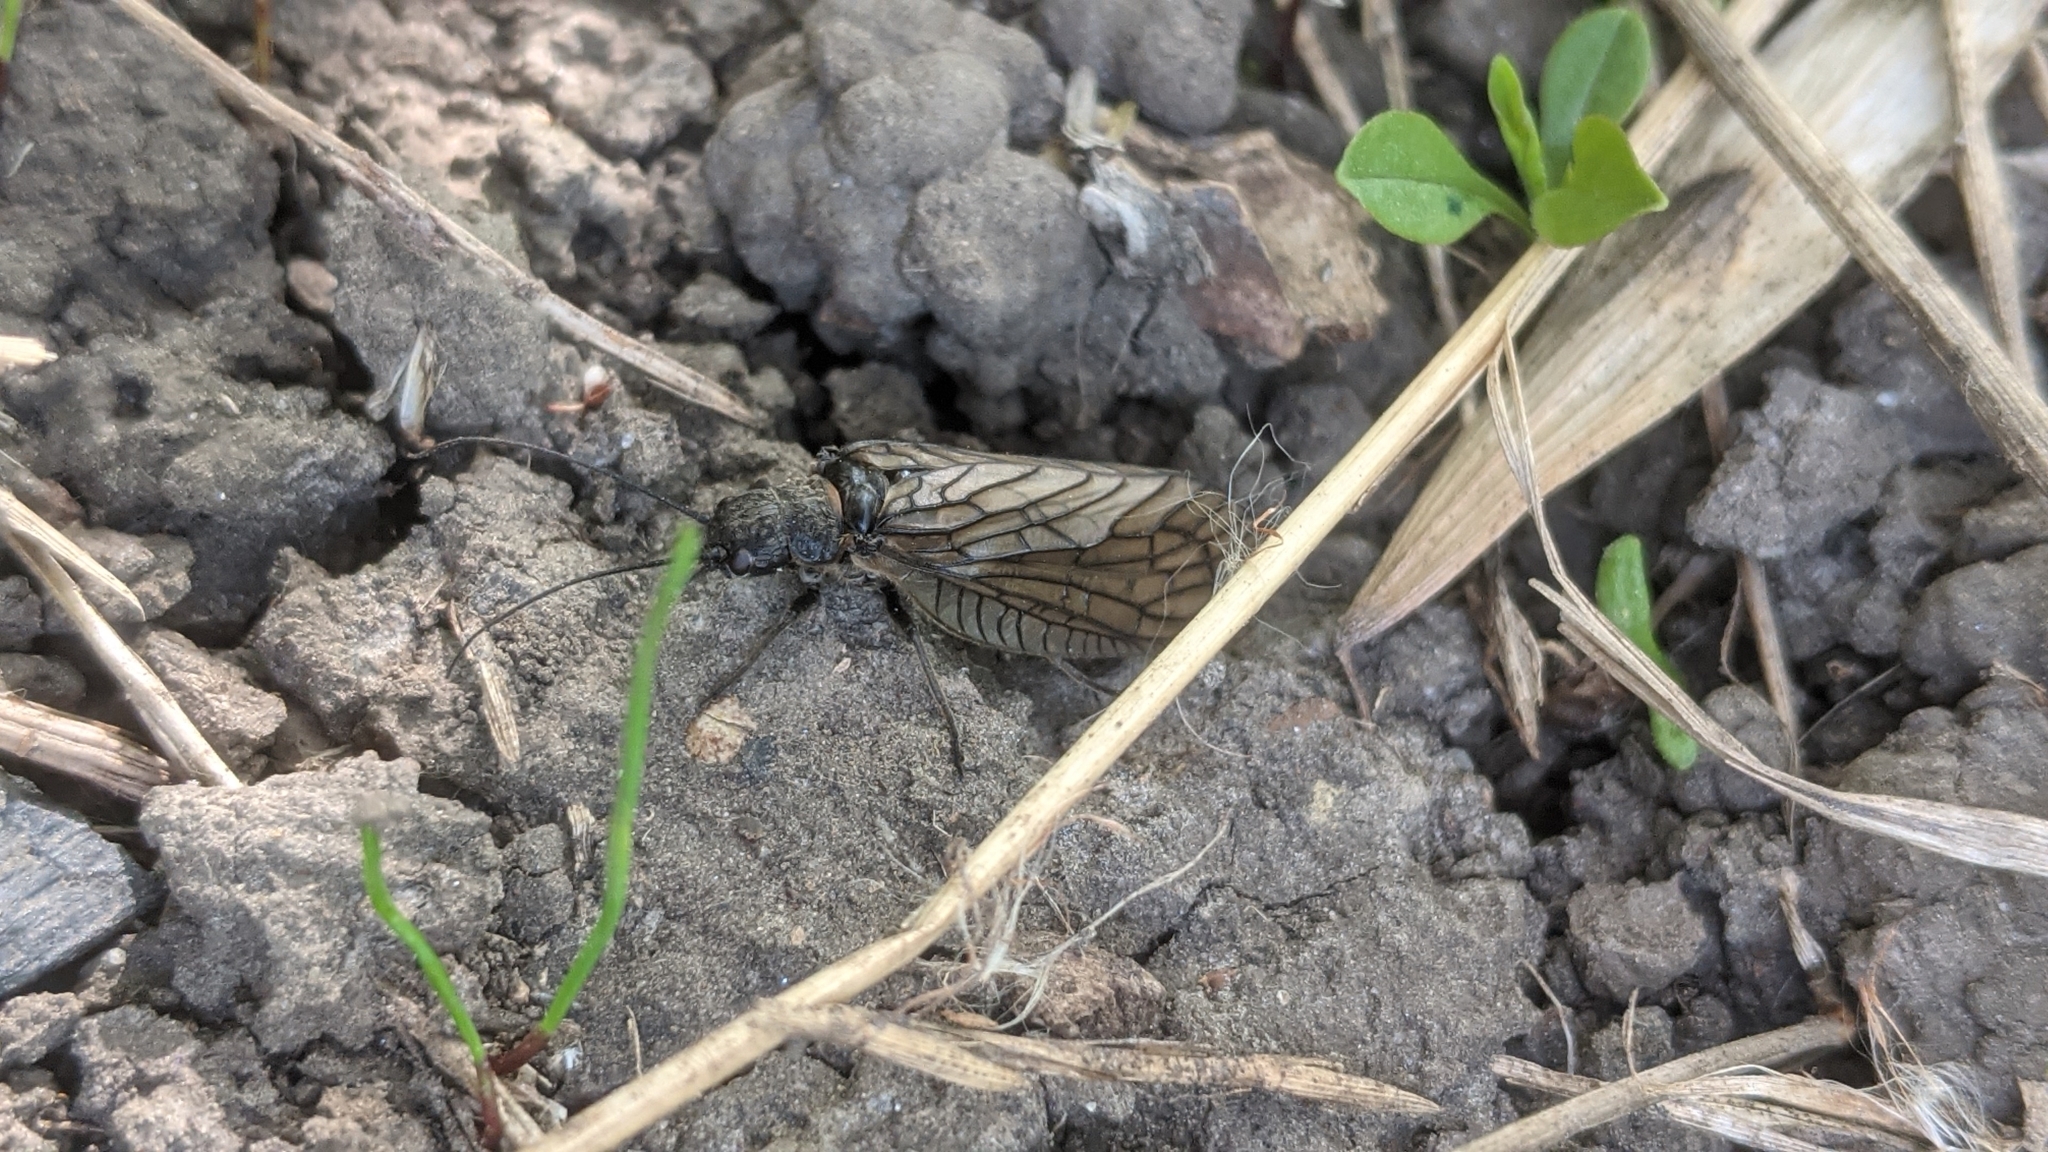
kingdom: Animalia
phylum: Arthropoda
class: Insecta
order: Megaloptera
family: Sialidae
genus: Sialis
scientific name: Sialis
